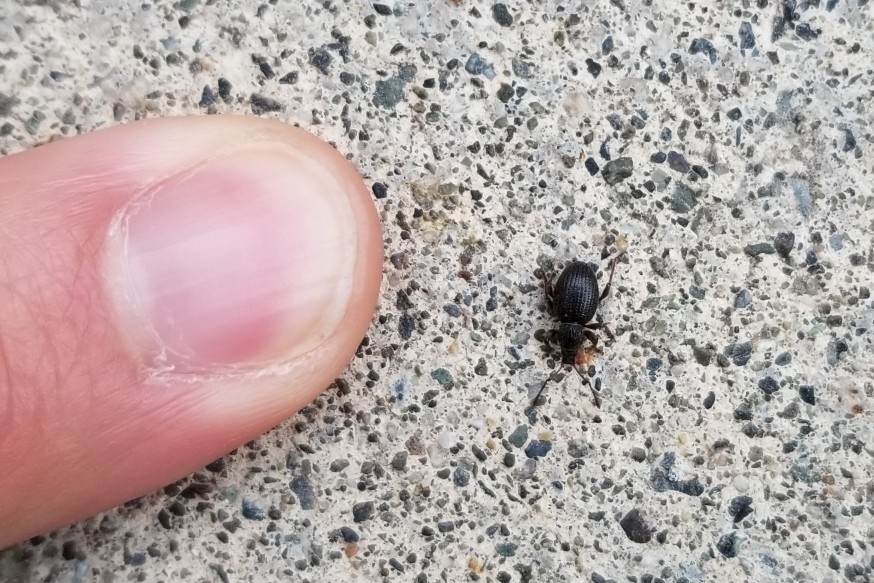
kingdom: Animalia
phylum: Arthropoda
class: Insecta
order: Coleoptera
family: Curculionidae
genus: Otiorhynchus
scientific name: Otiorhynchus ovatus
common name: Strawberry root weevil
